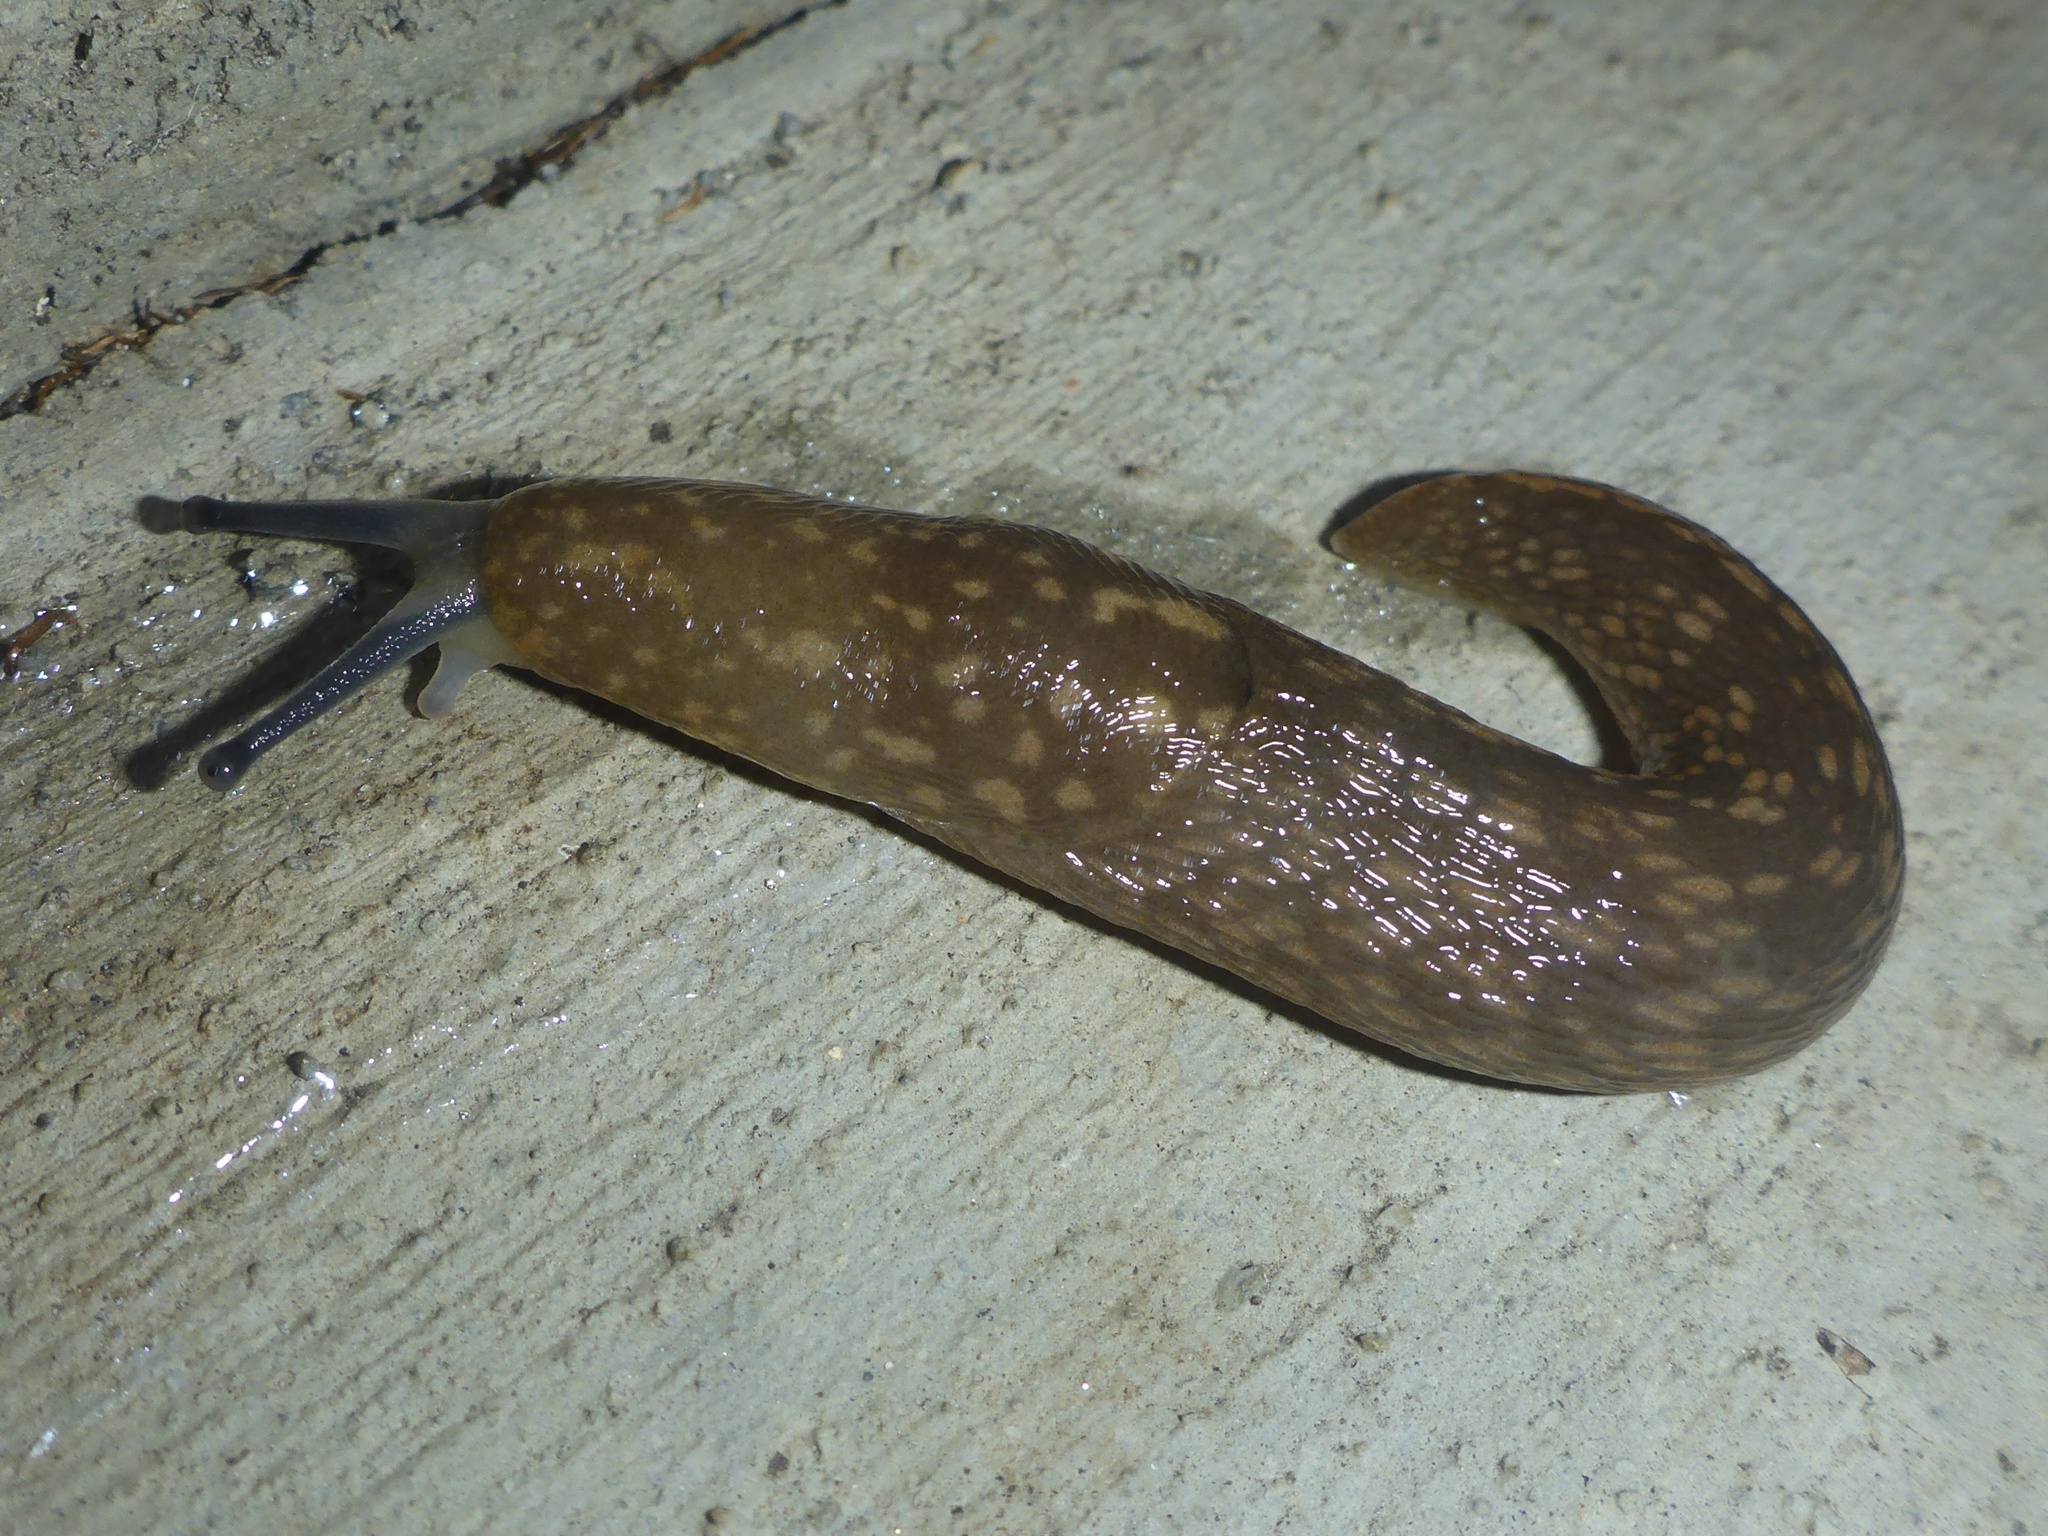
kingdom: Animalia
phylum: Mollusca
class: Gastropoda
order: Stylommatophora
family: Limacidae
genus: Limacus
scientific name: Limacus flavus
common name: Yellow gardenslug
